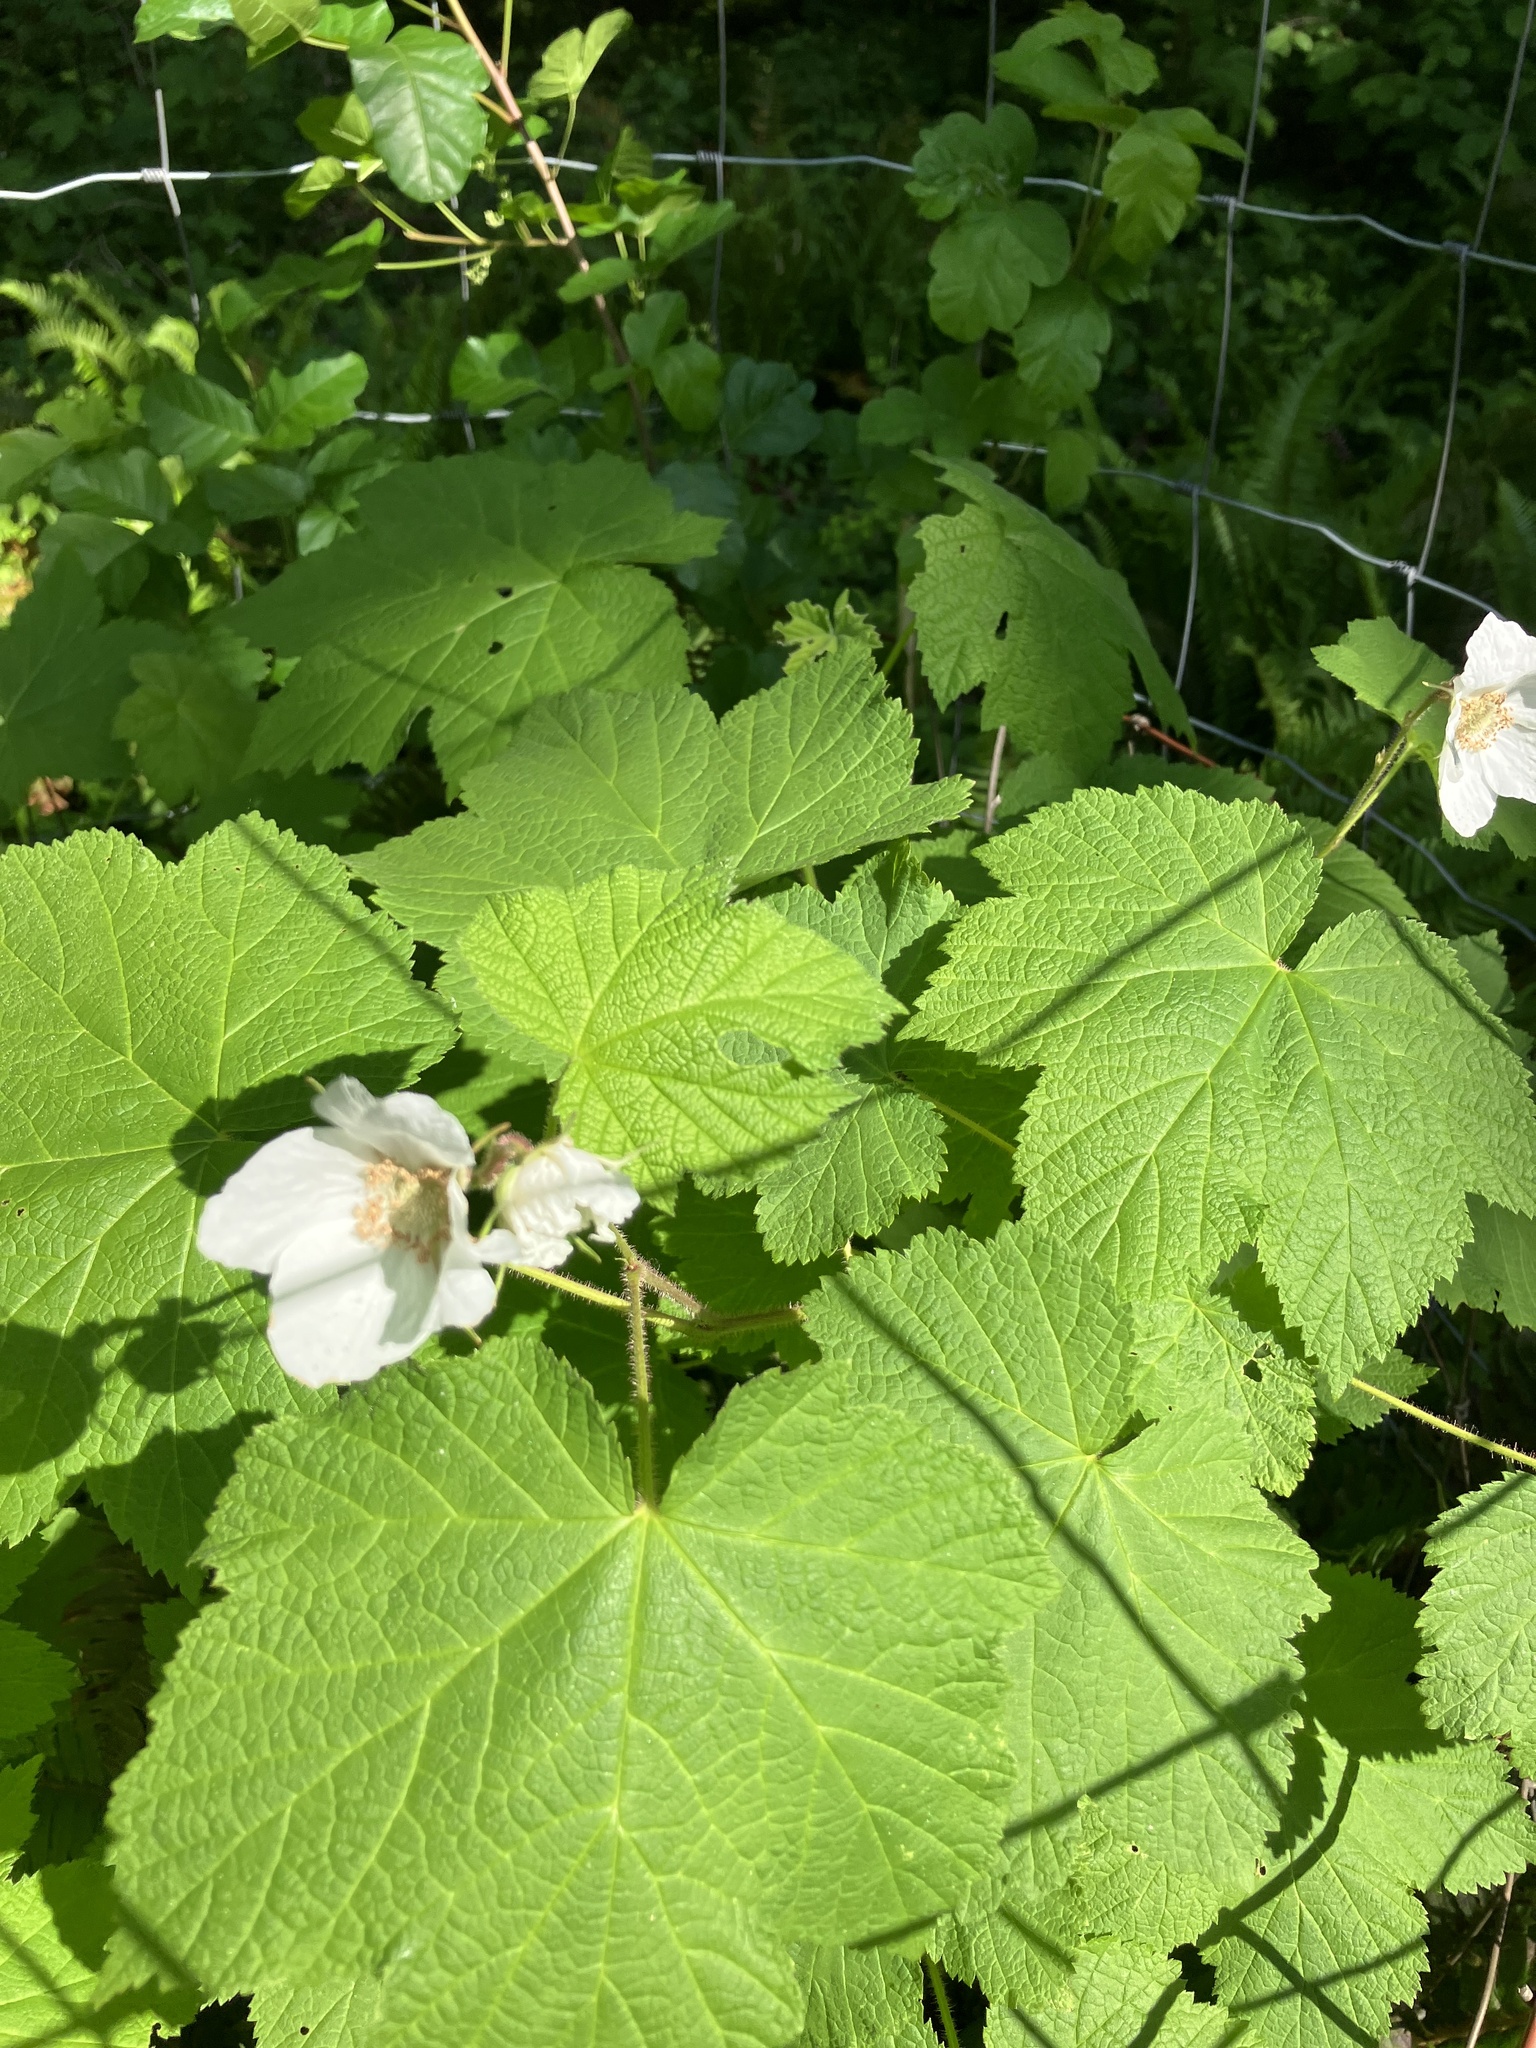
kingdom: Plantae
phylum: Tracheophyta
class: Magnoliopsida
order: Rosales
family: Rosaceae
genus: Rubus
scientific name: Rubus parviflorus
